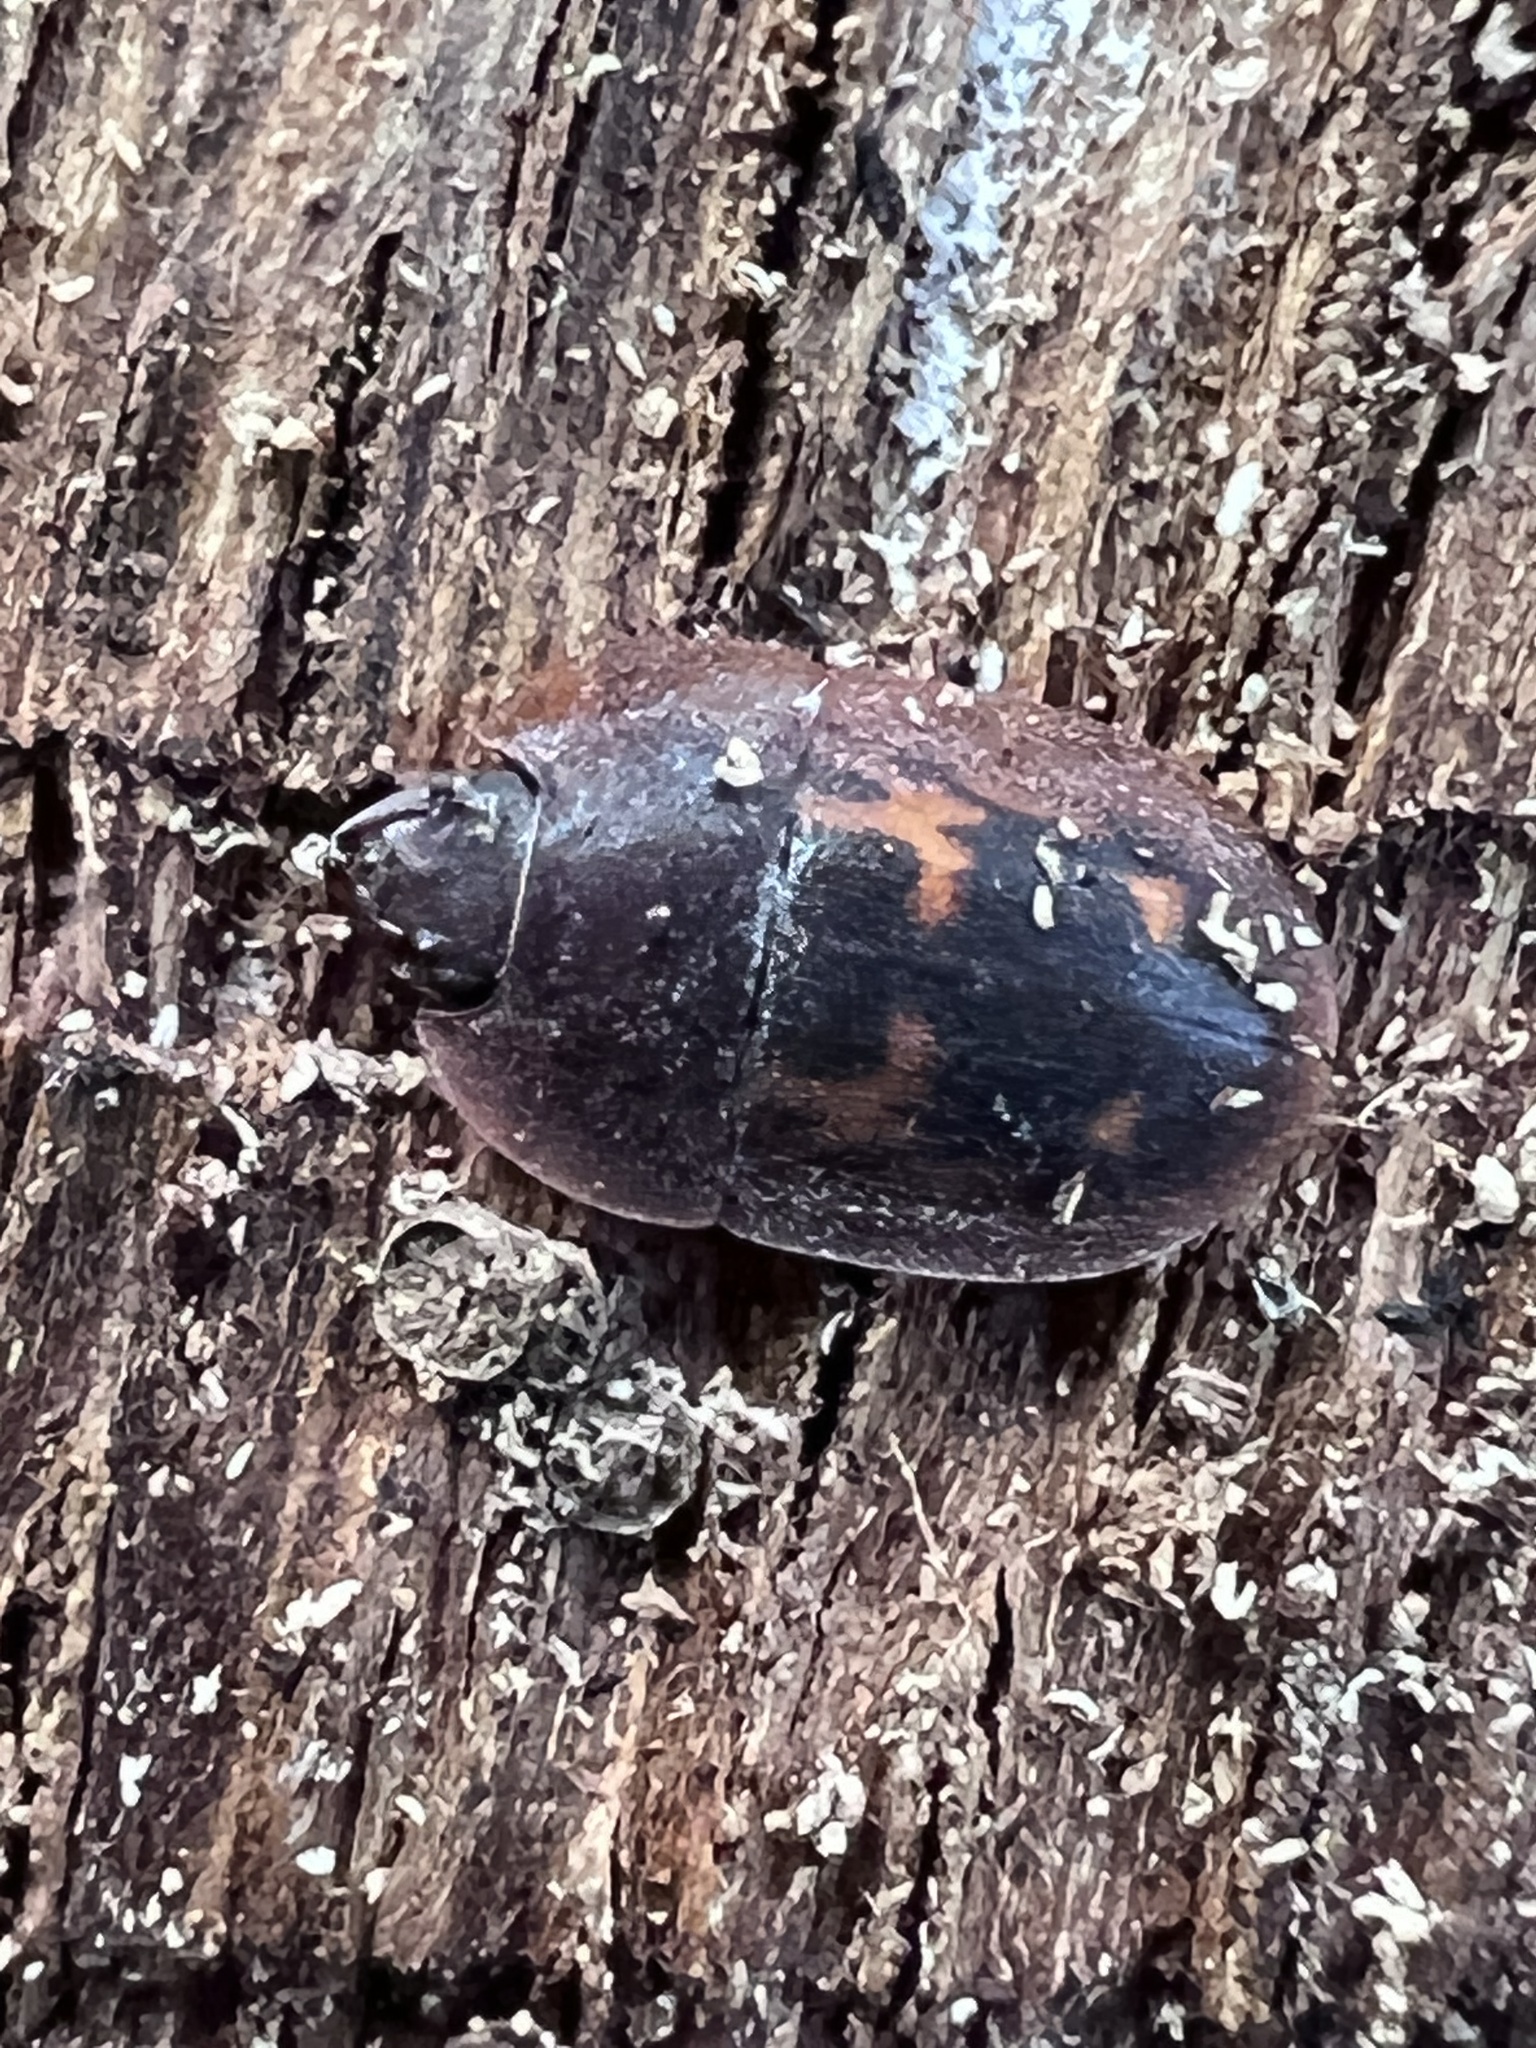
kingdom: Animalia
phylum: Arthropoda
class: Insecta
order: Coleoptera
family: Nitidulidae
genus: Prometopia
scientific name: Prometopia sexmaculata
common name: Six-spotted sap-feeding beetle
